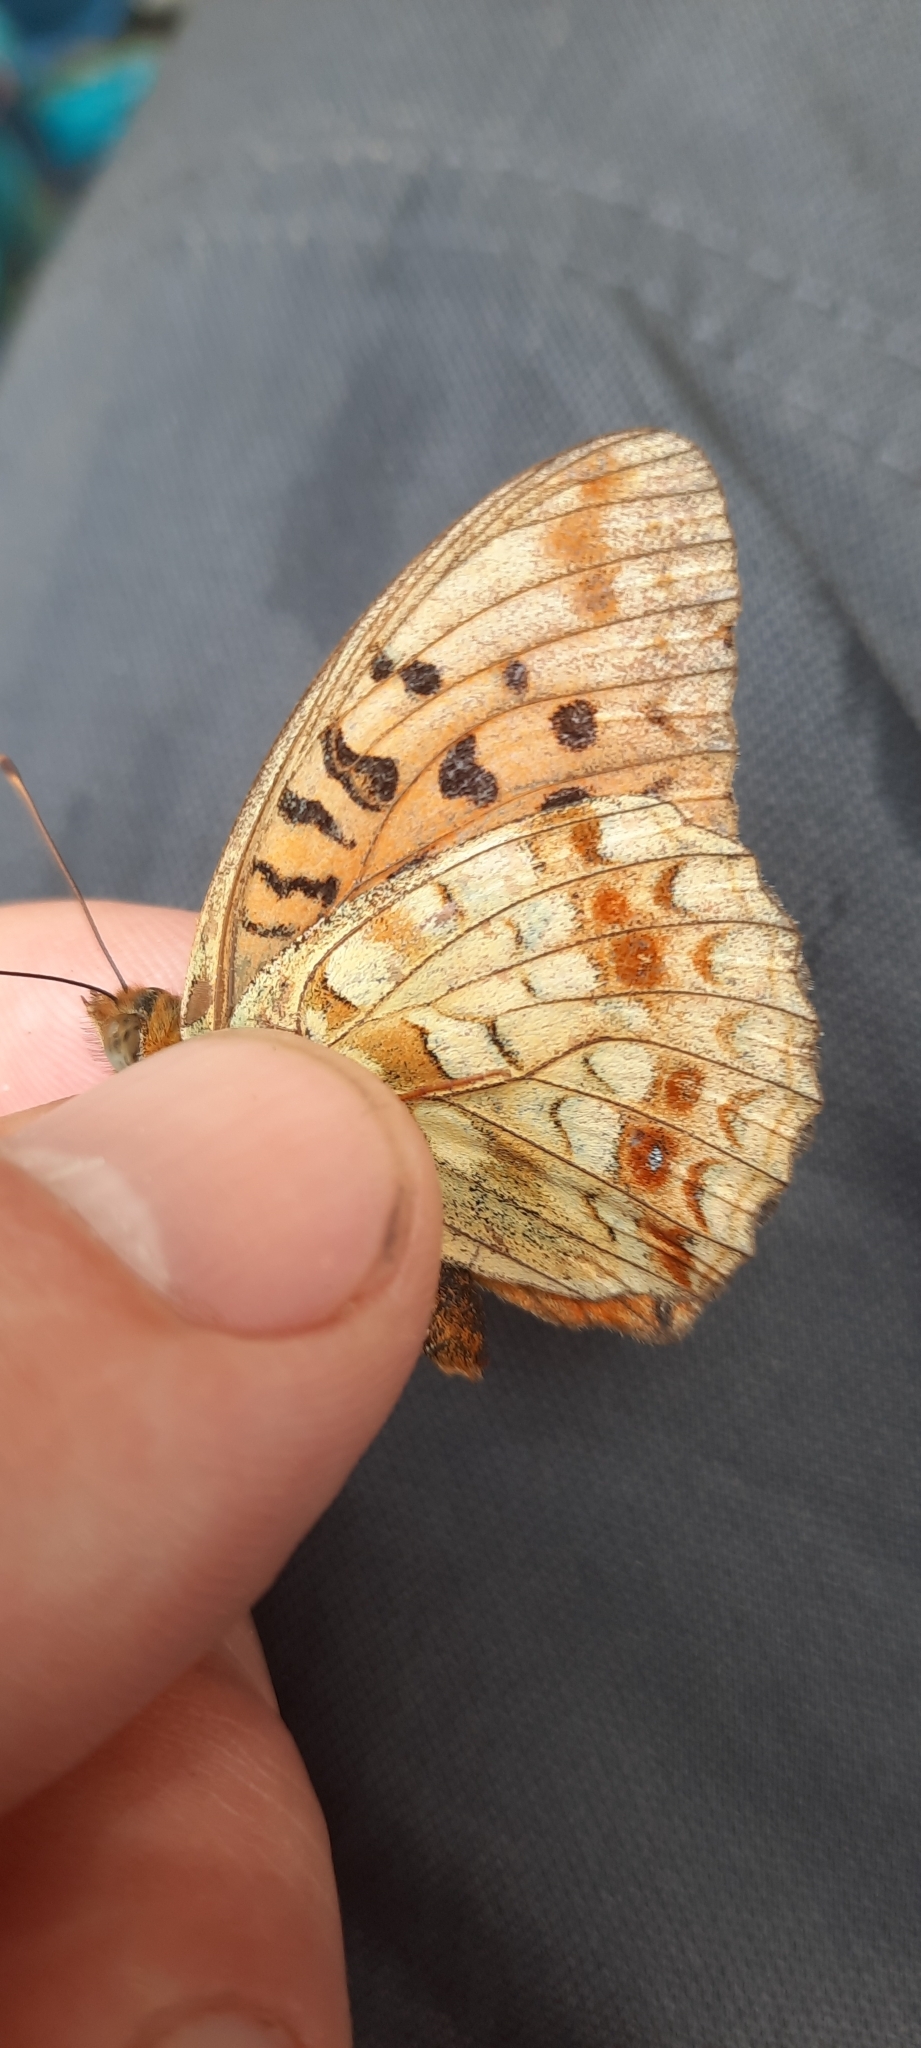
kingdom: Animalia
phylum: Arthropoda
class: Insecta
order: Lepidoptera
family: Nymphalidae
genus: Fabriciana
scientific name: Fabriciana adippe
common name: High brown fritillary
